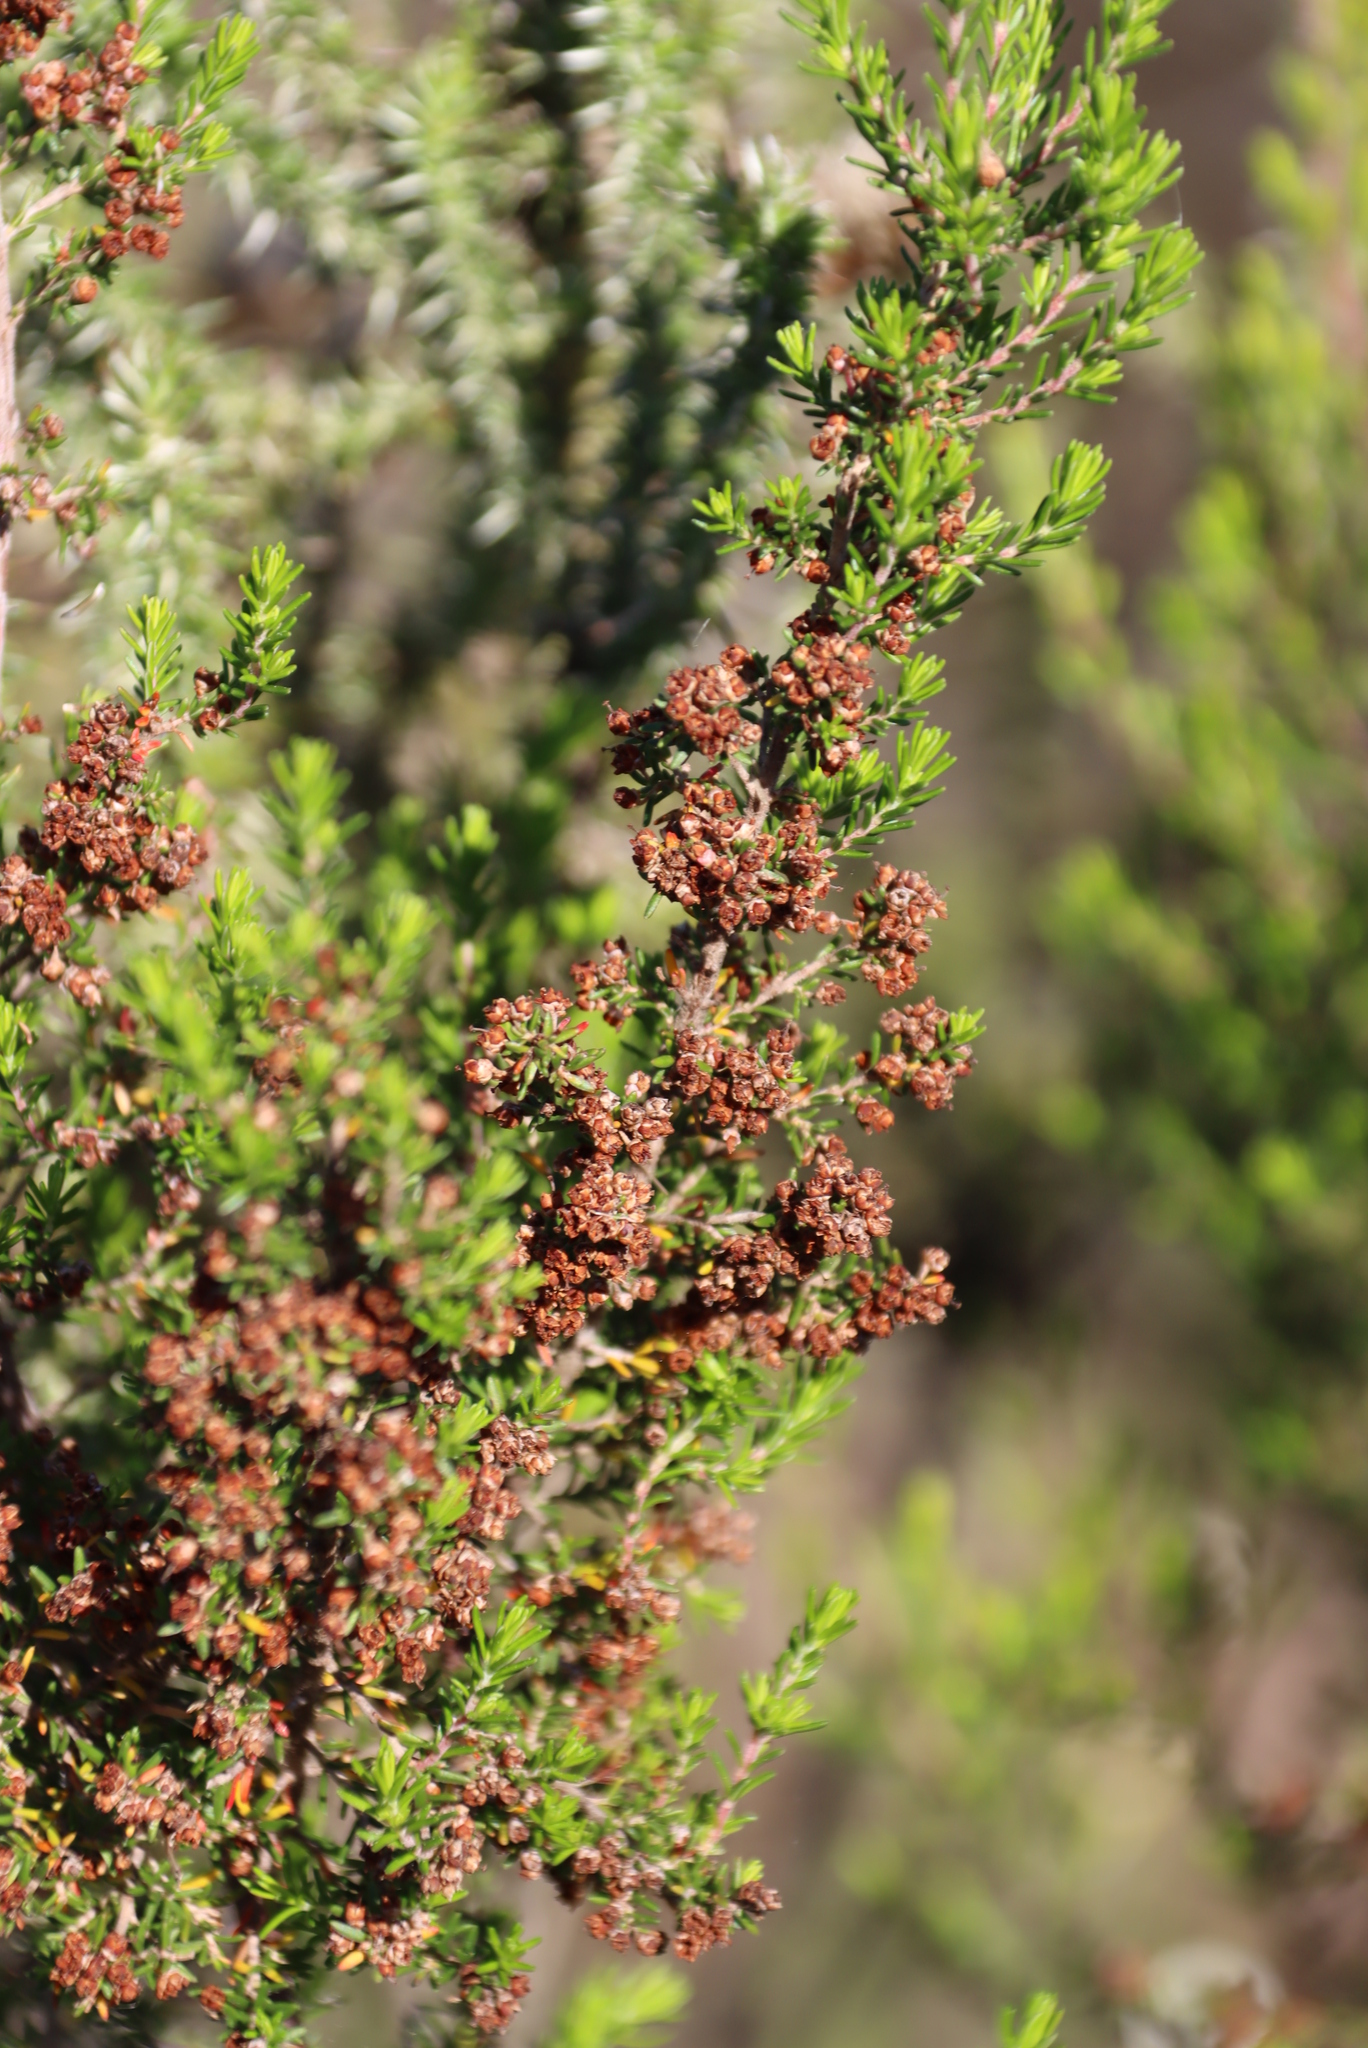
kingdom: Plantae
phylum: Tracheophyta
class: Magnoliopsida
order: Ericales
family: Ericaceae
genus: Erica
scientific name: Erica peltata
